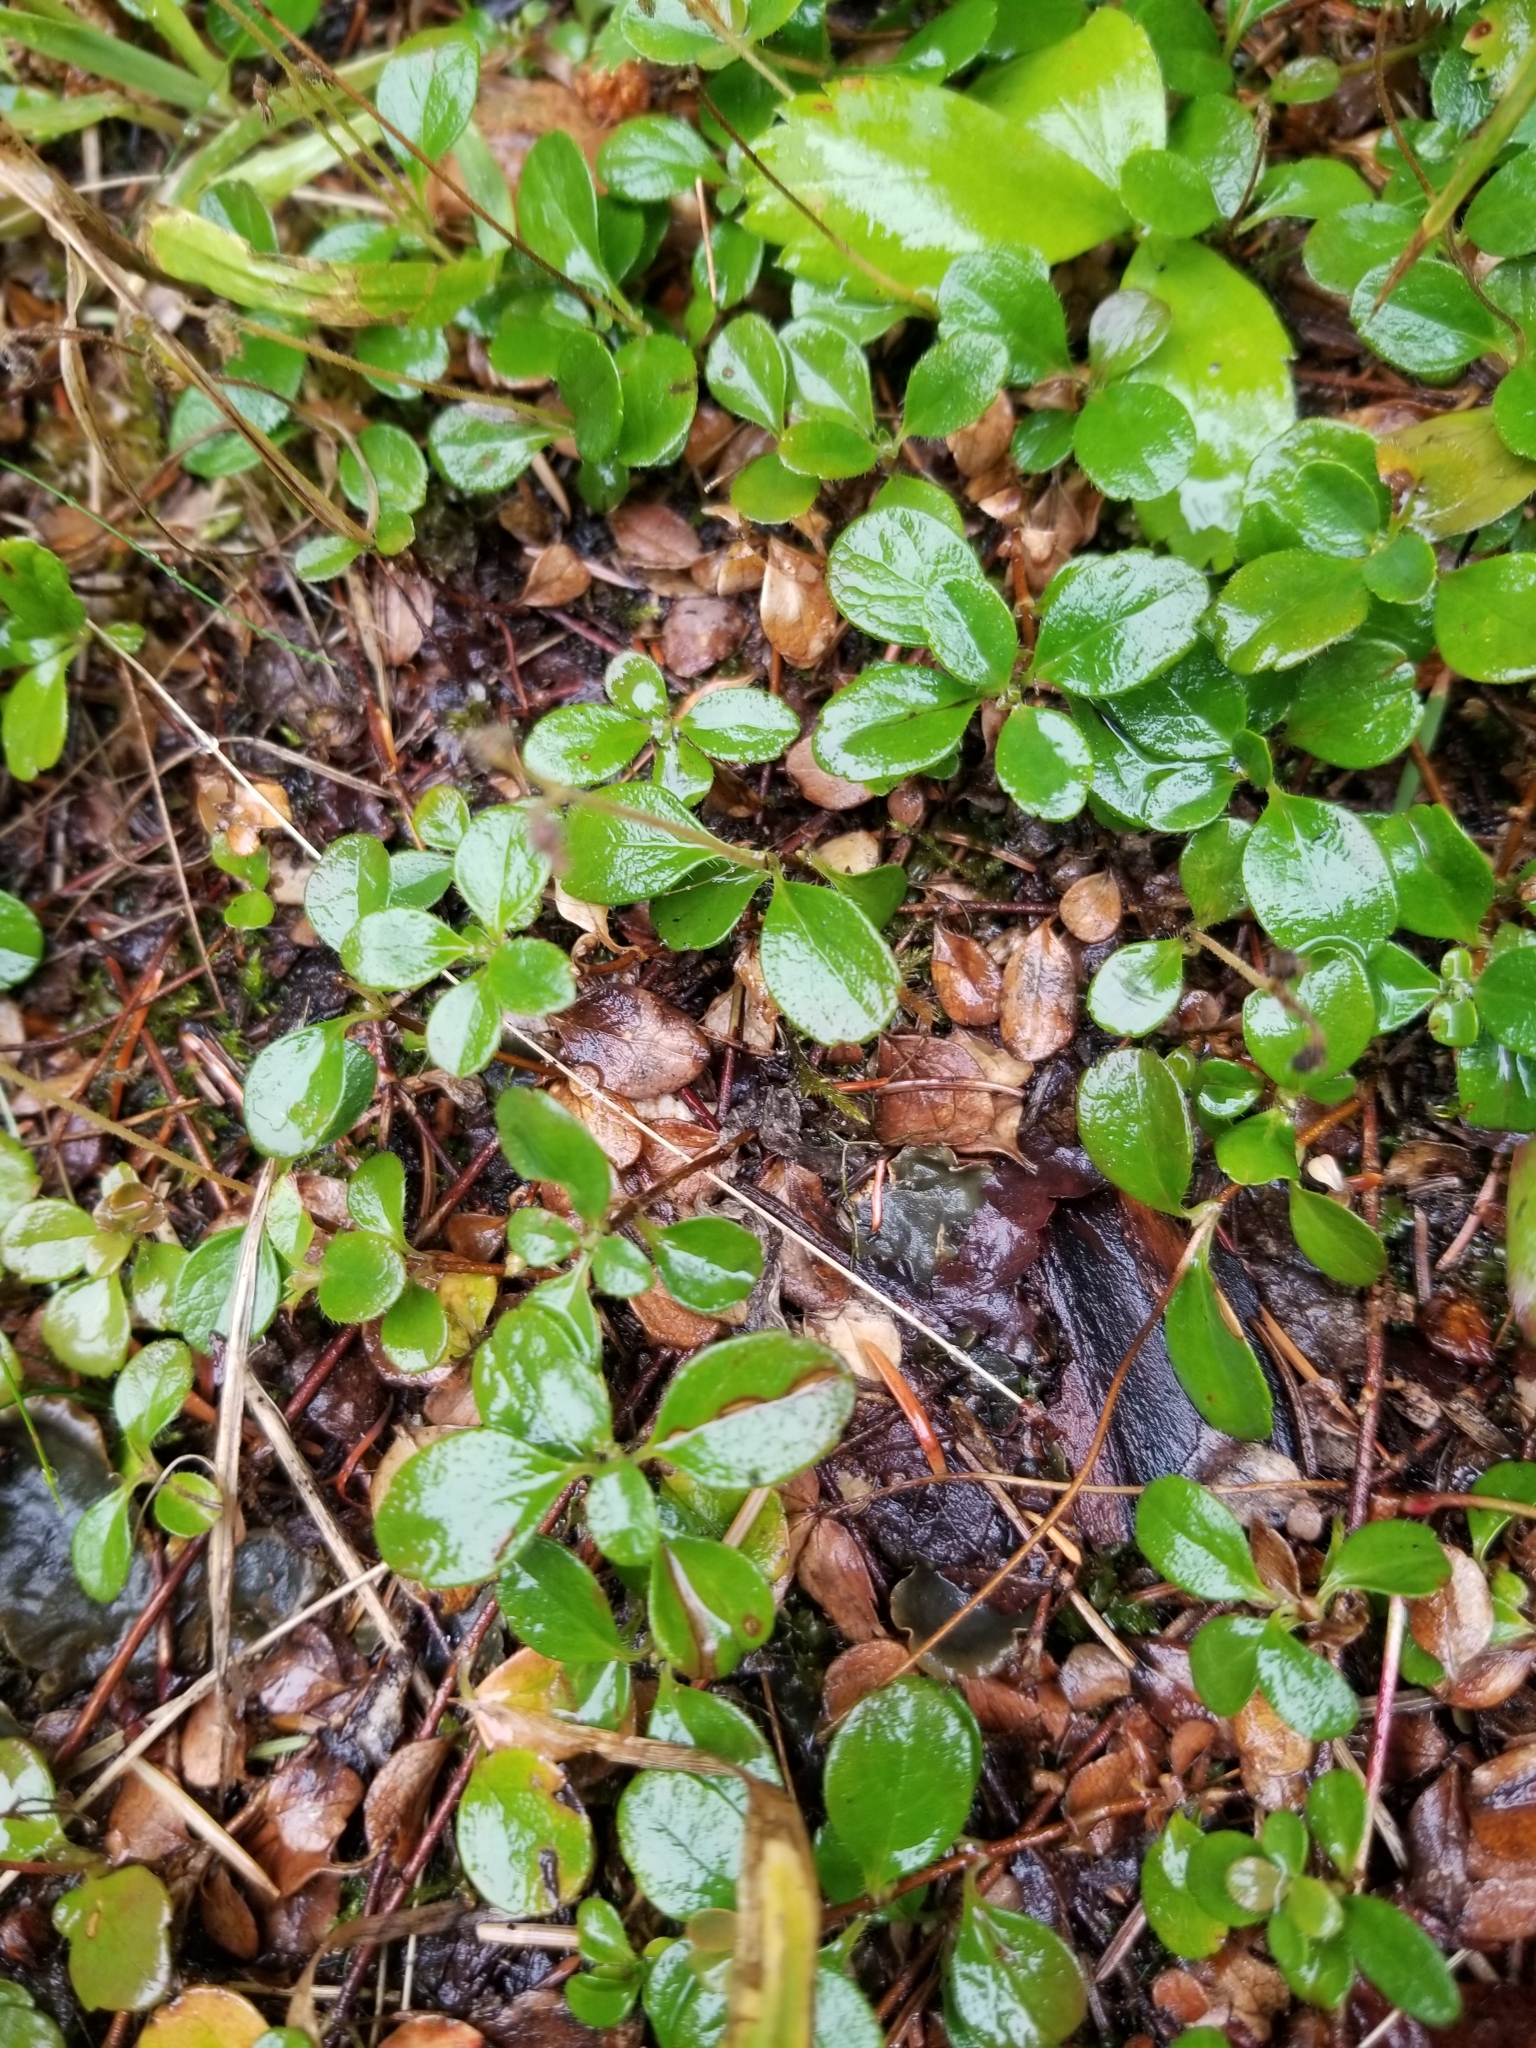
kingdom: Plantae
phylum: Tracheophyta
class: Magnoliopsida
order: Dipsacales
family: Caprifoliaceae
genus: Linnaea
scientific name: Linnaea borealis
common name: Twinflower
